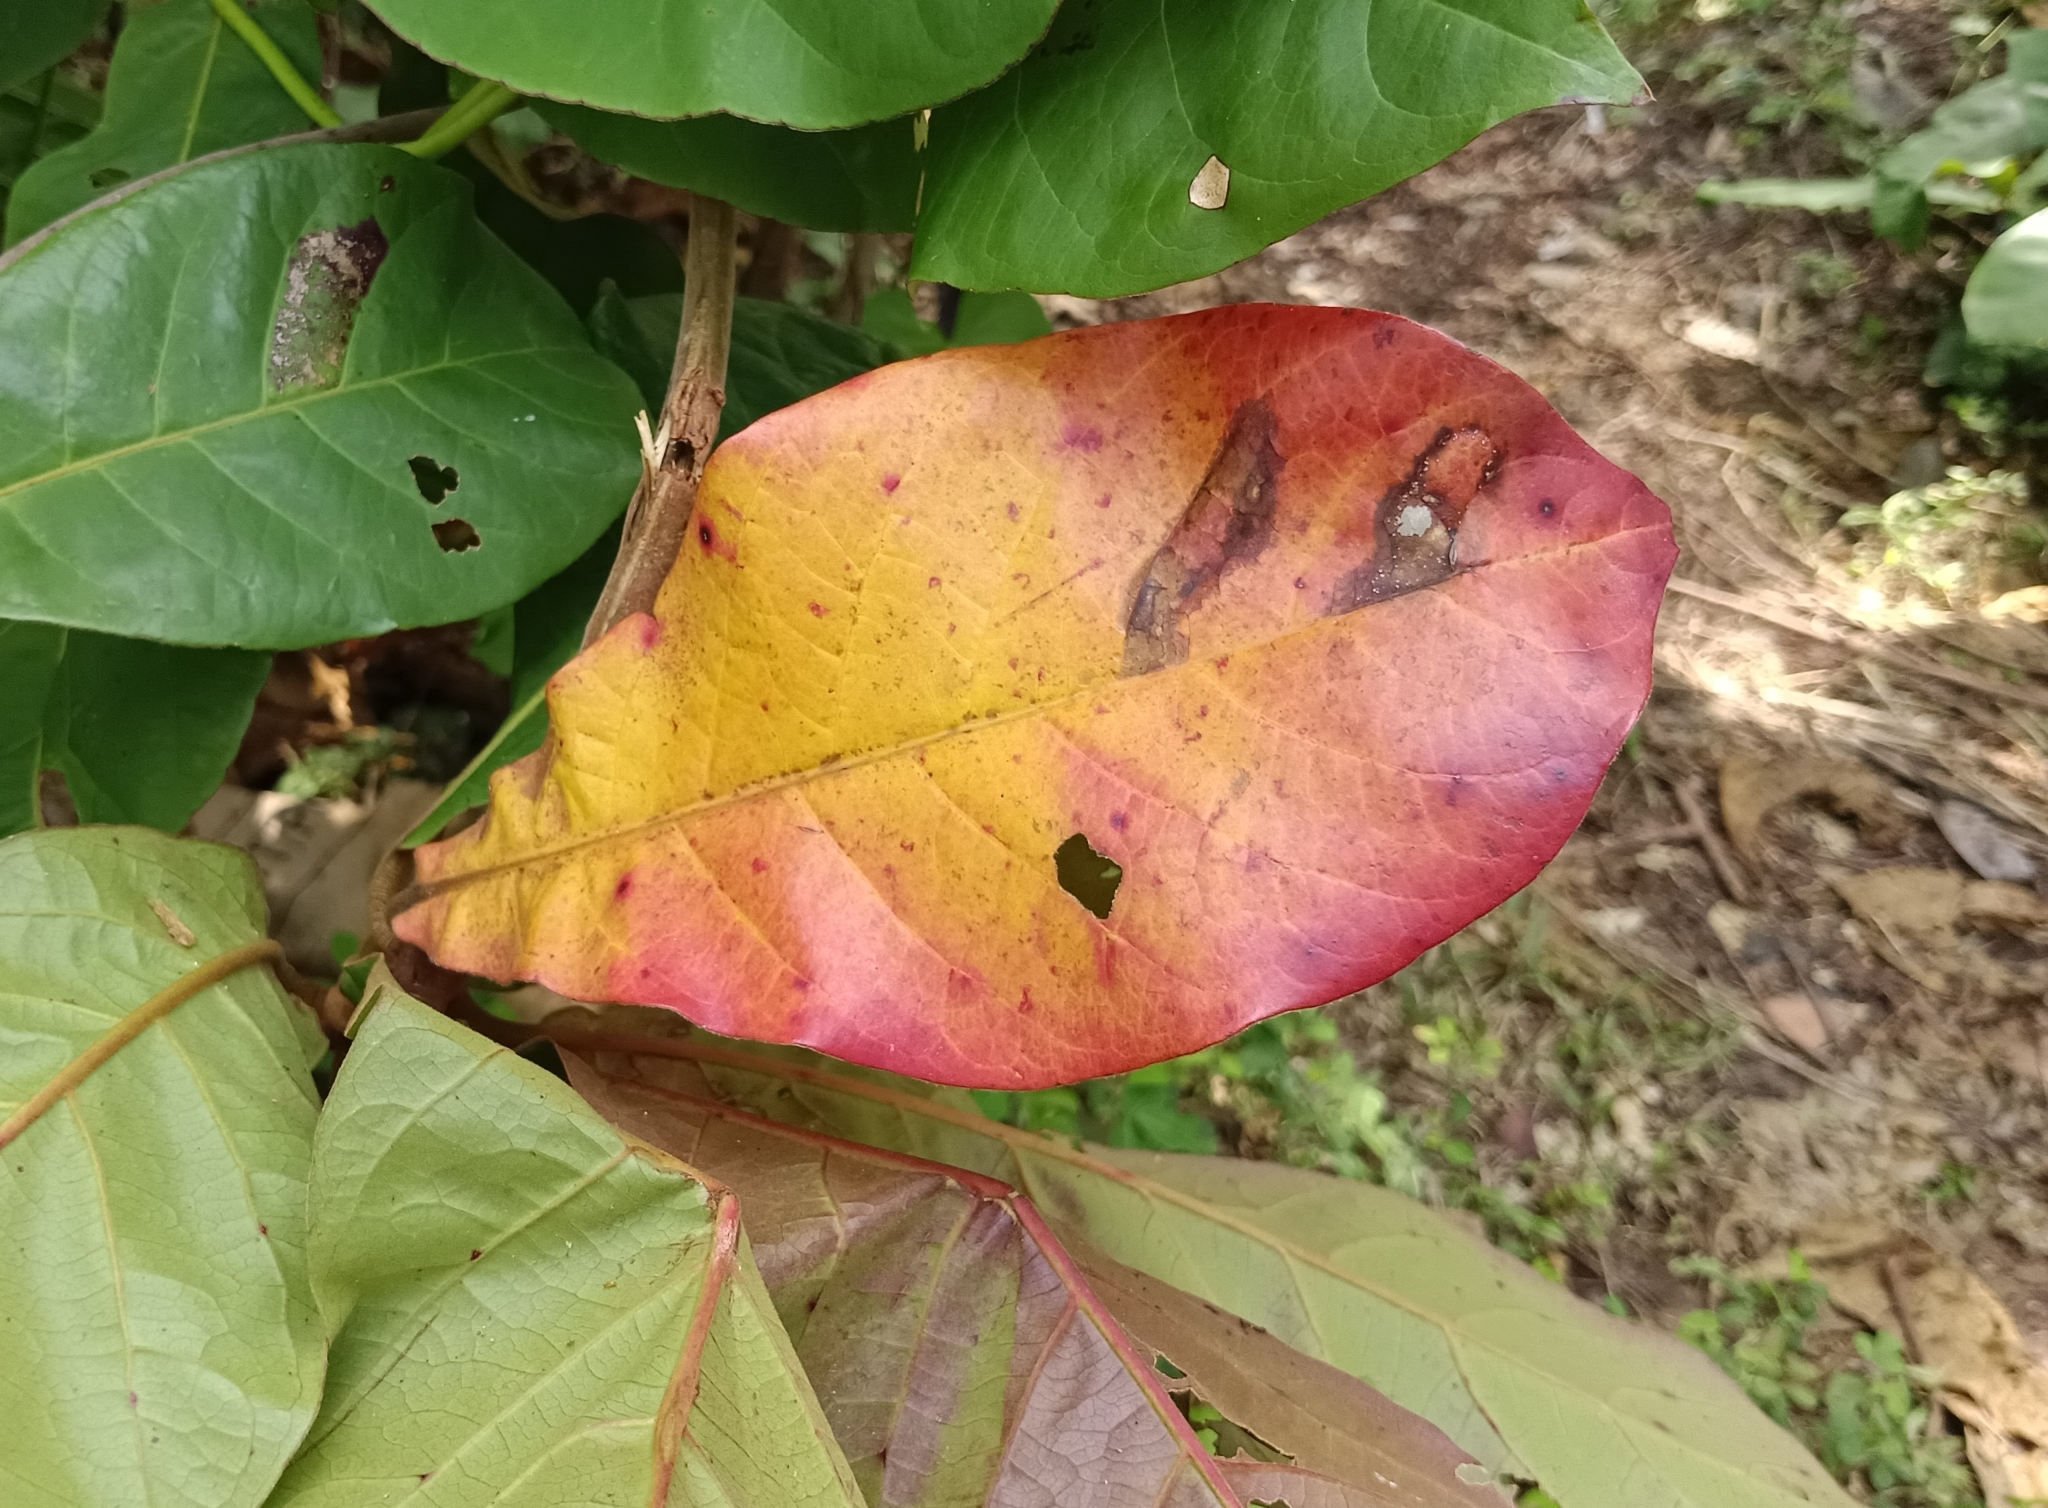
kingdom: Plantae
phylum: Tracheophyta
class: Magnoliopsida
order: Myrtales
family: Combretaceae
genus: Terminalia
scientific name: Terminalia catappa
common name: Tropical almond
